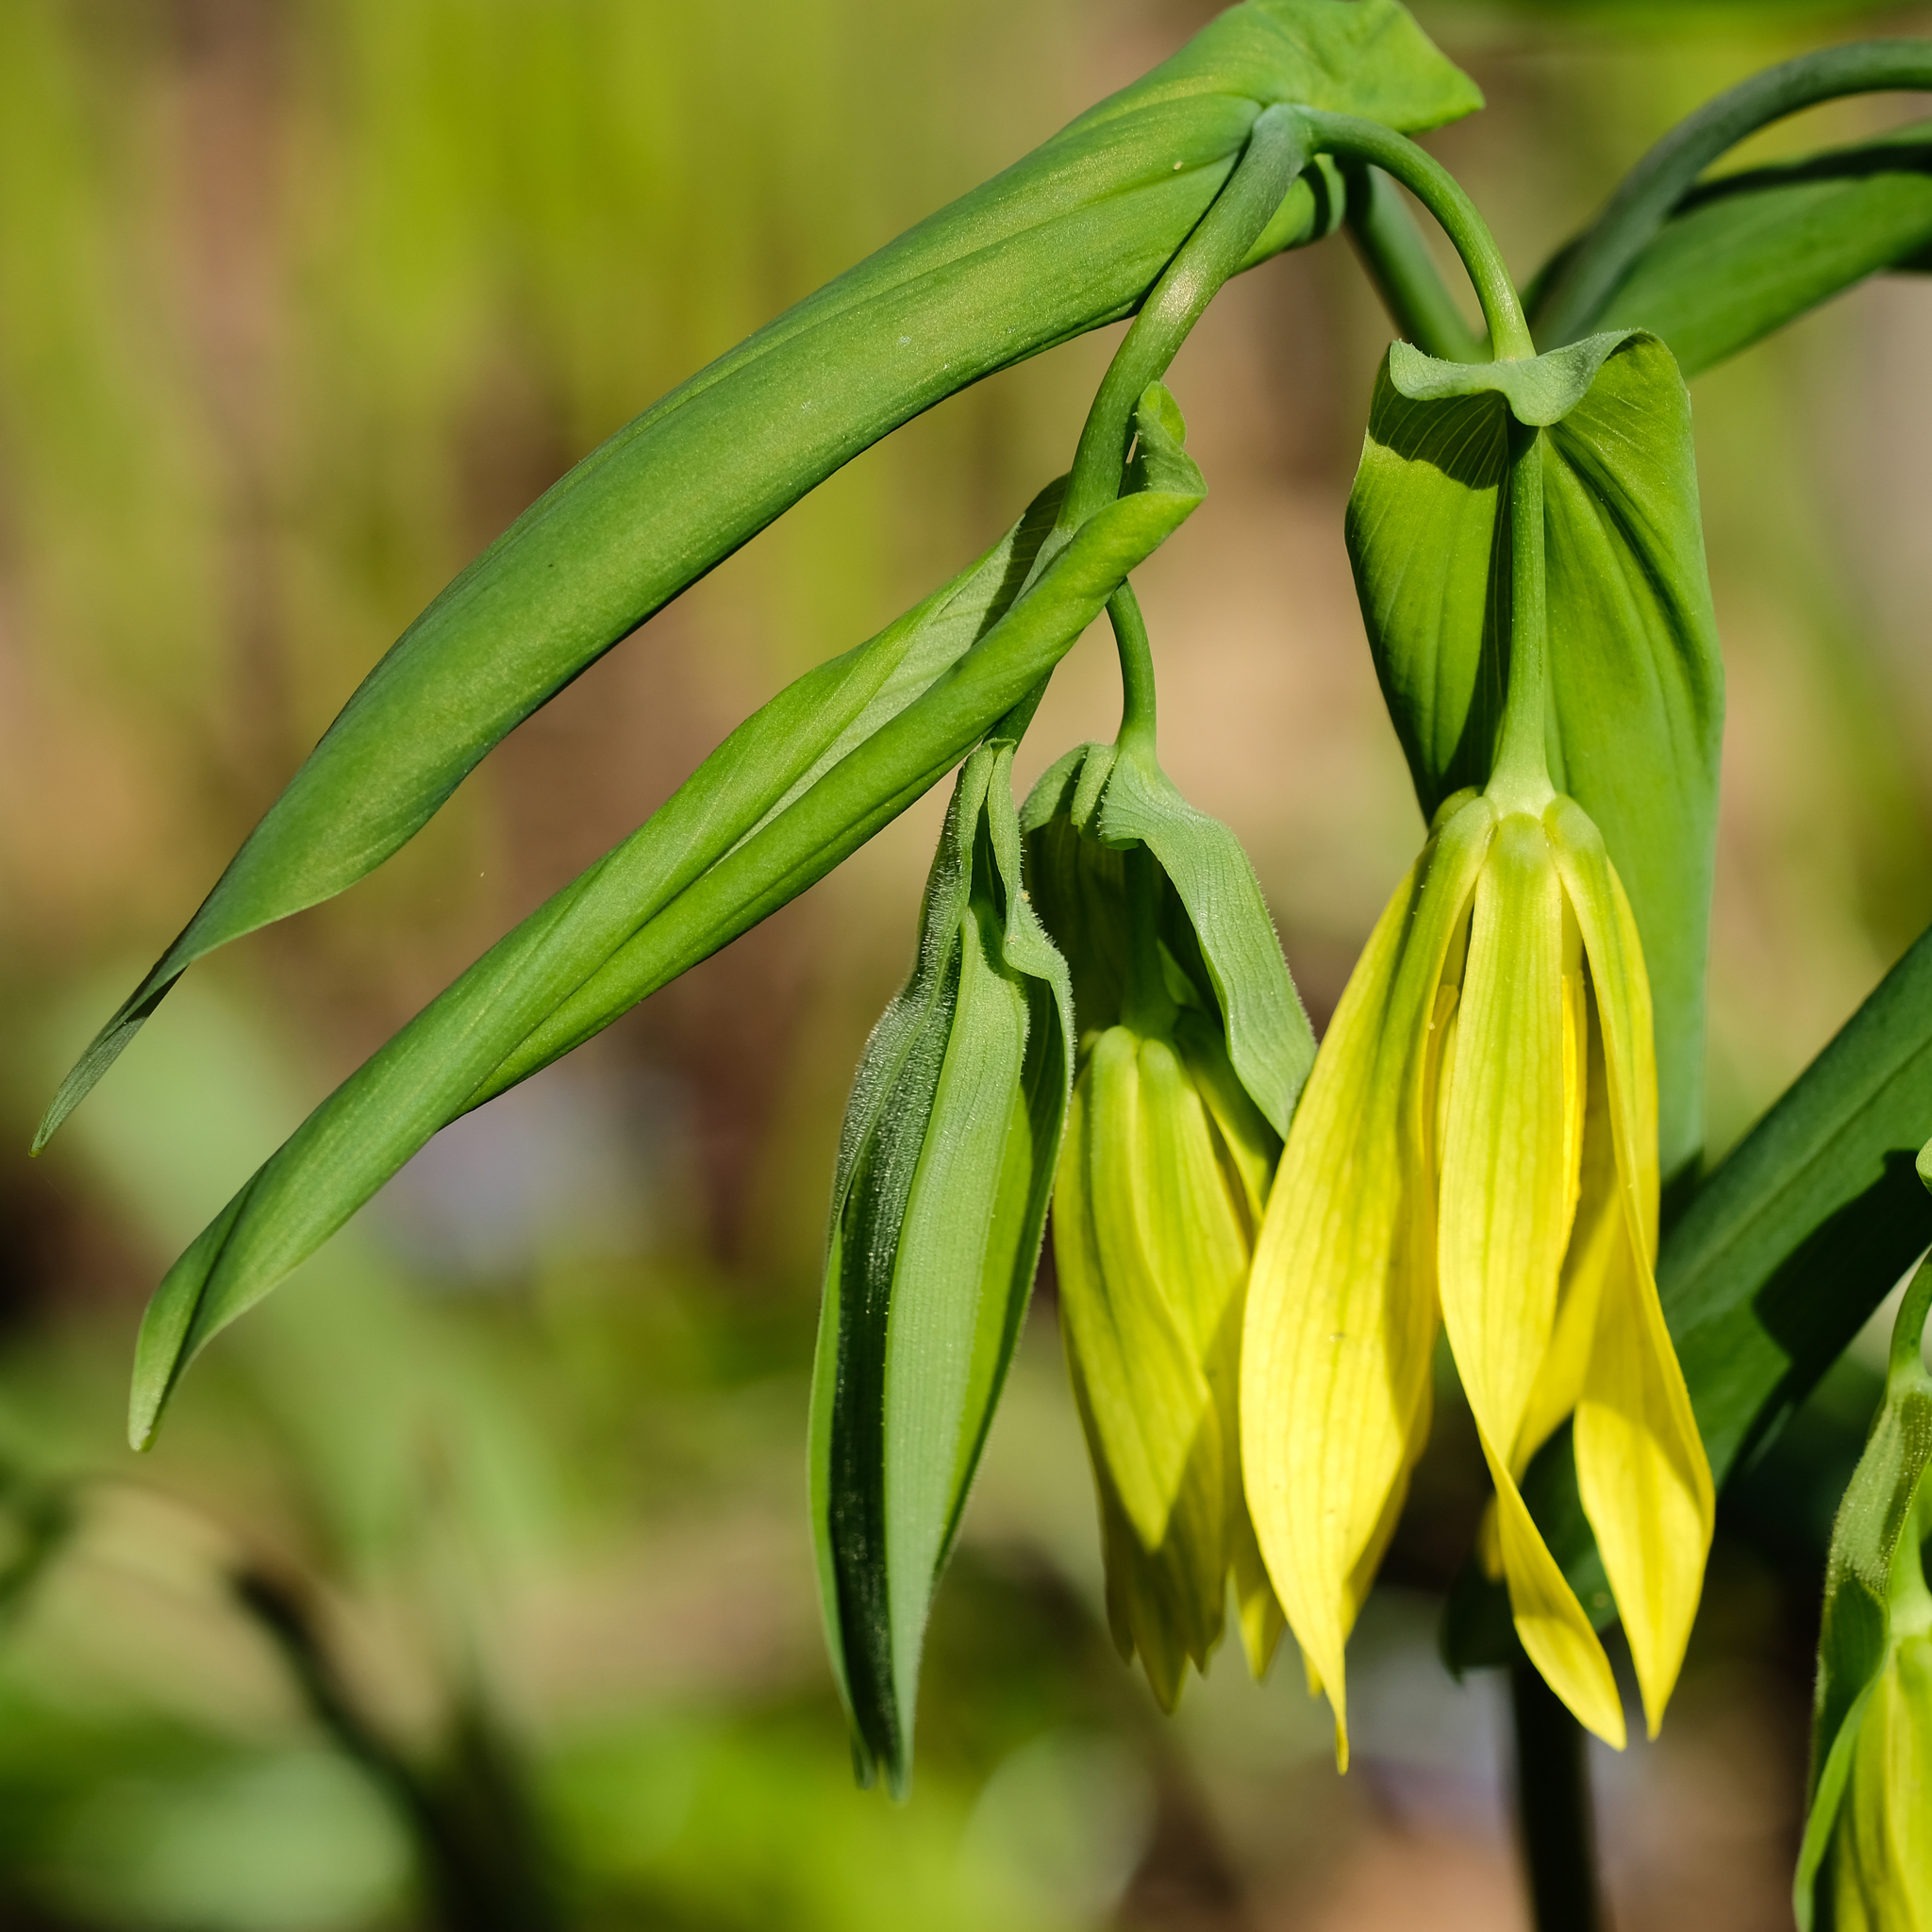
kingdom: Plantae
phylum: Tracheophyta
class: Liliopsida
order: Liliales
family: Colchicaceae
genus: Uvularia
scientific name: Uvularia grandiflora
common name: Bellwort
